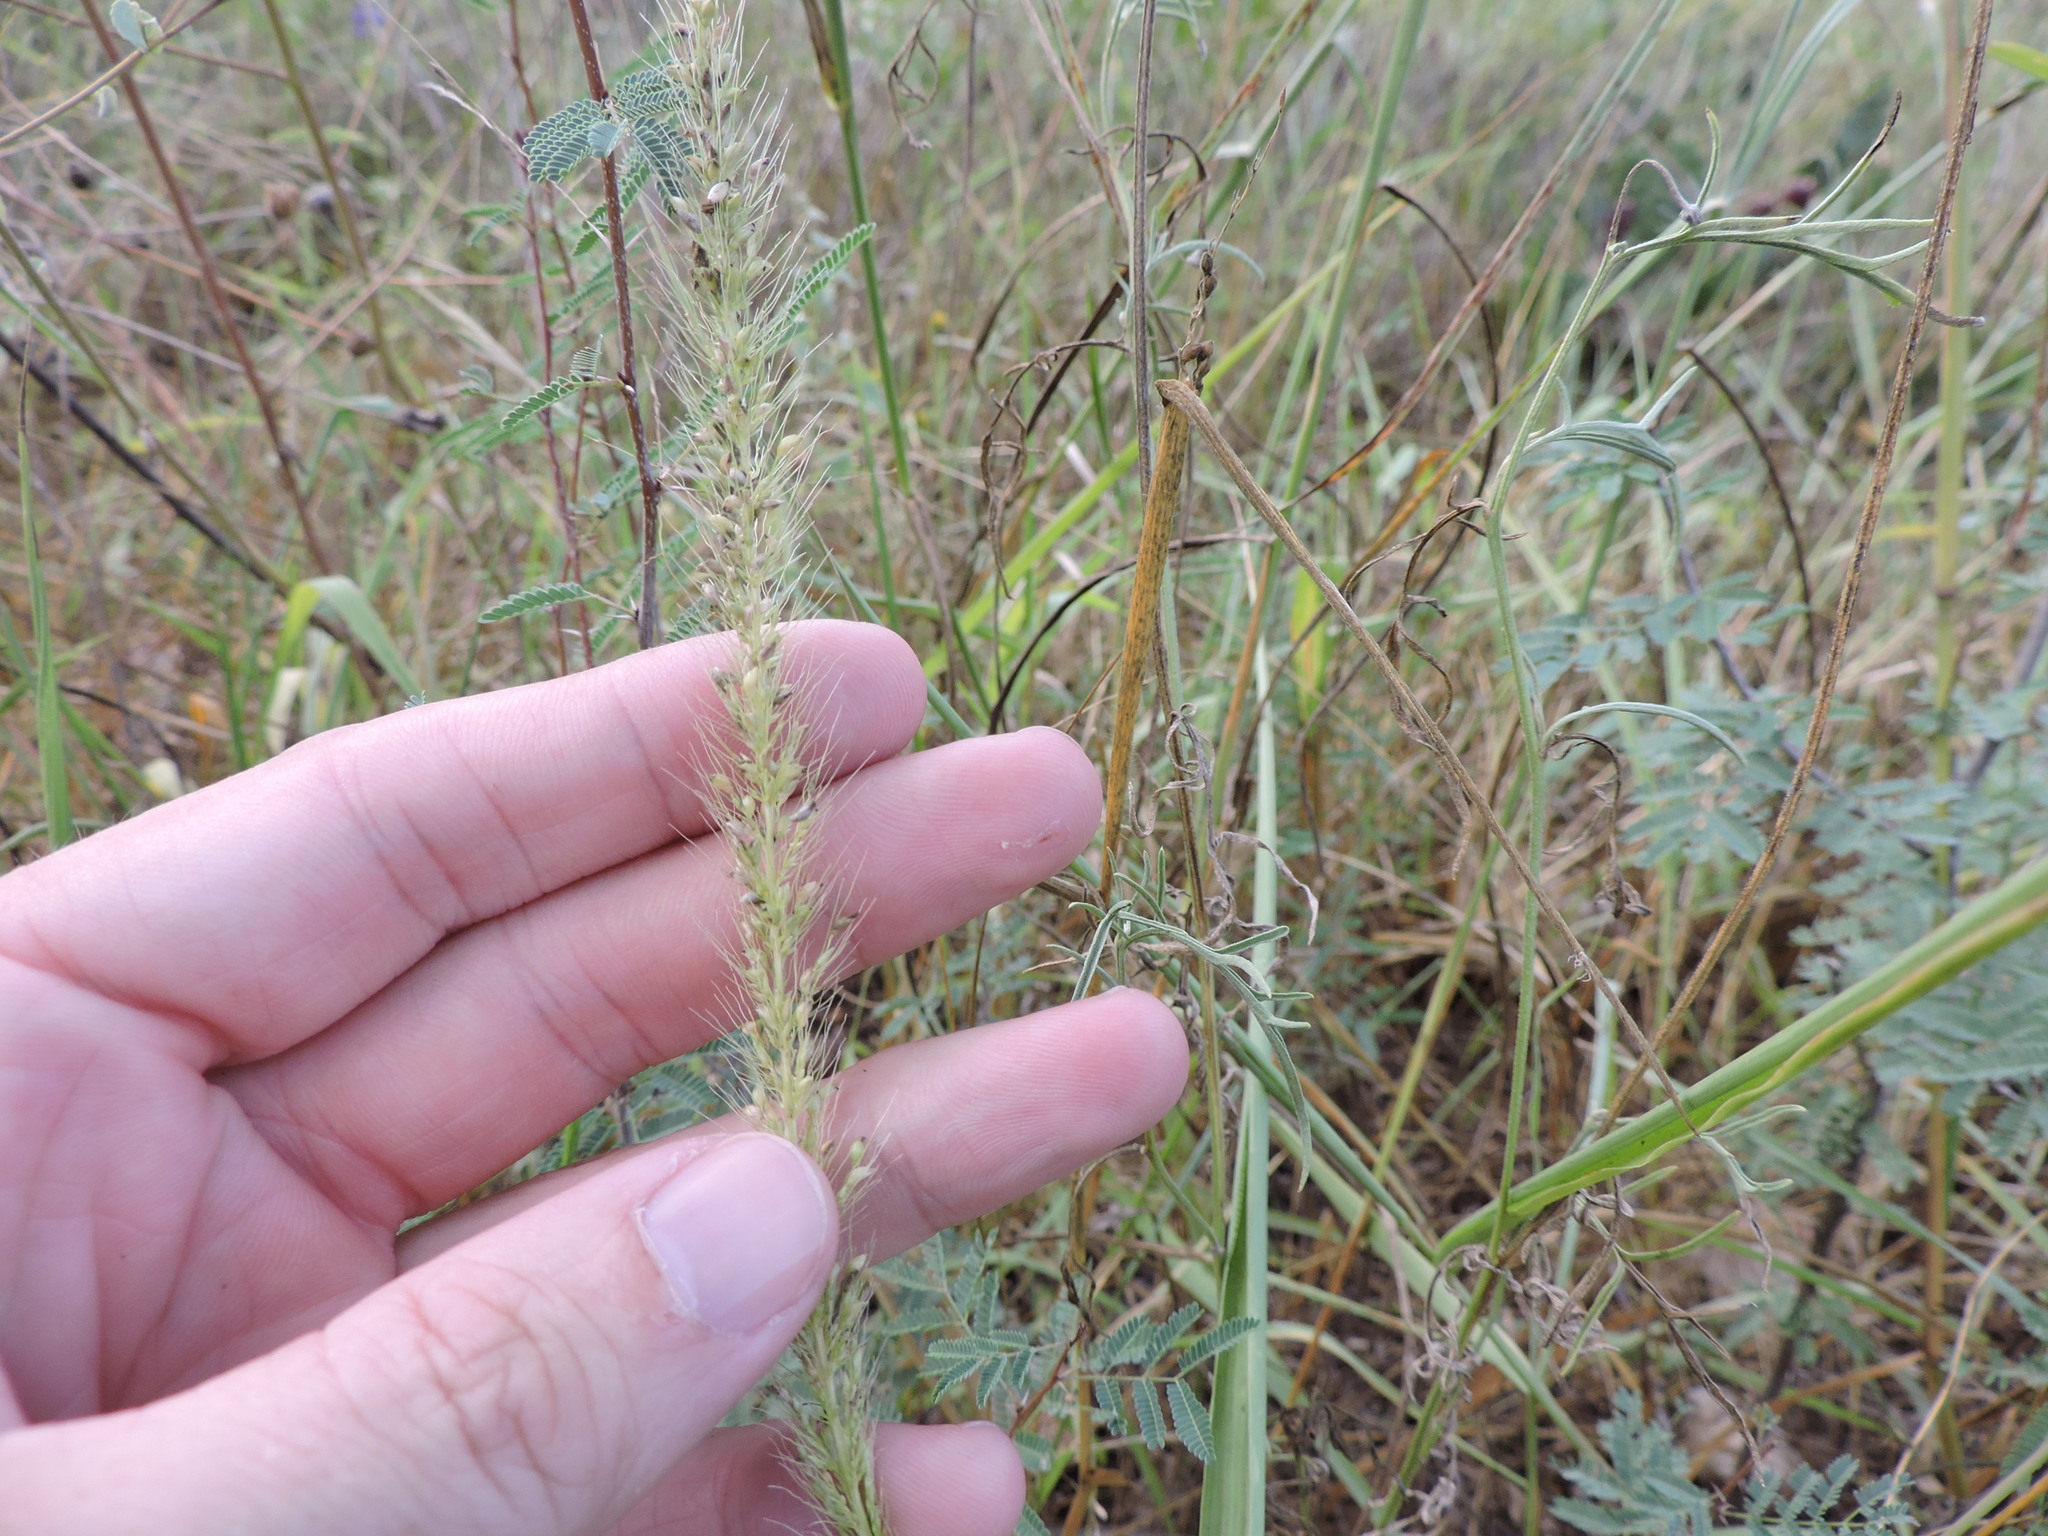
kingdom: Plantae
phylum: Tracheophyta
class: Liliopsida
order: Poales
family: Poaceae
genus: Setaria
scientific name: Setaria scheelei
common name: Southwestern bristle grass
